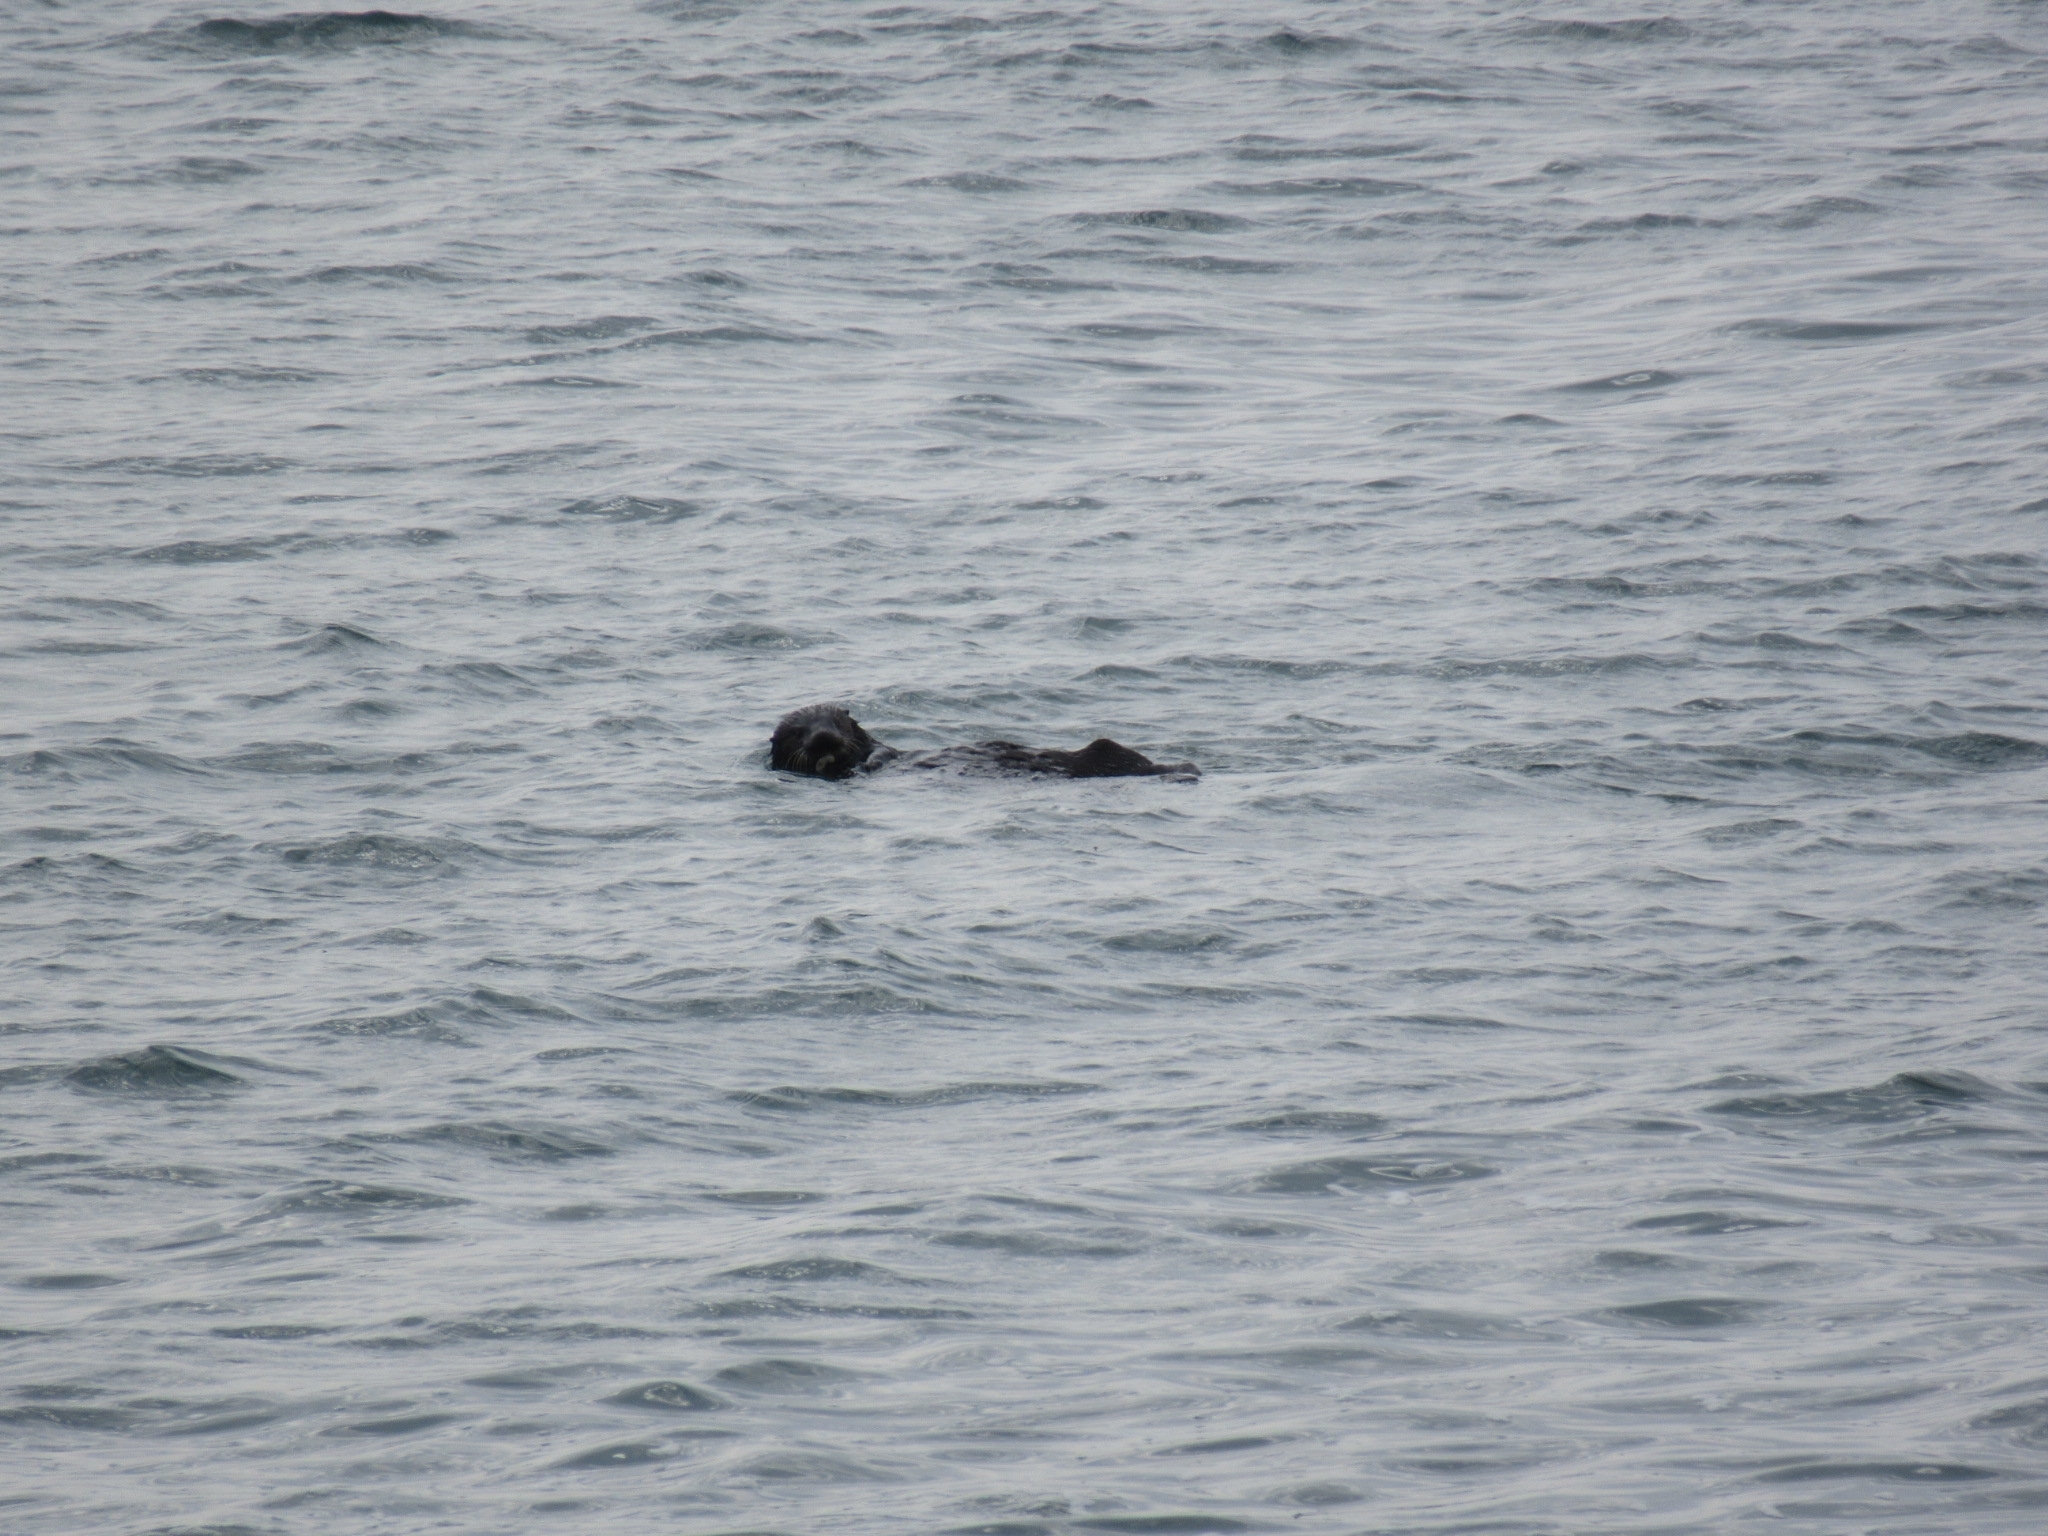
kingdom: Animalia
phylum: Chordata
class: Mammalia
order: Carnivora
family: Mustelidae
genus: Enhydra
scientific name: Enhydra lutris
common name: Sea otter
